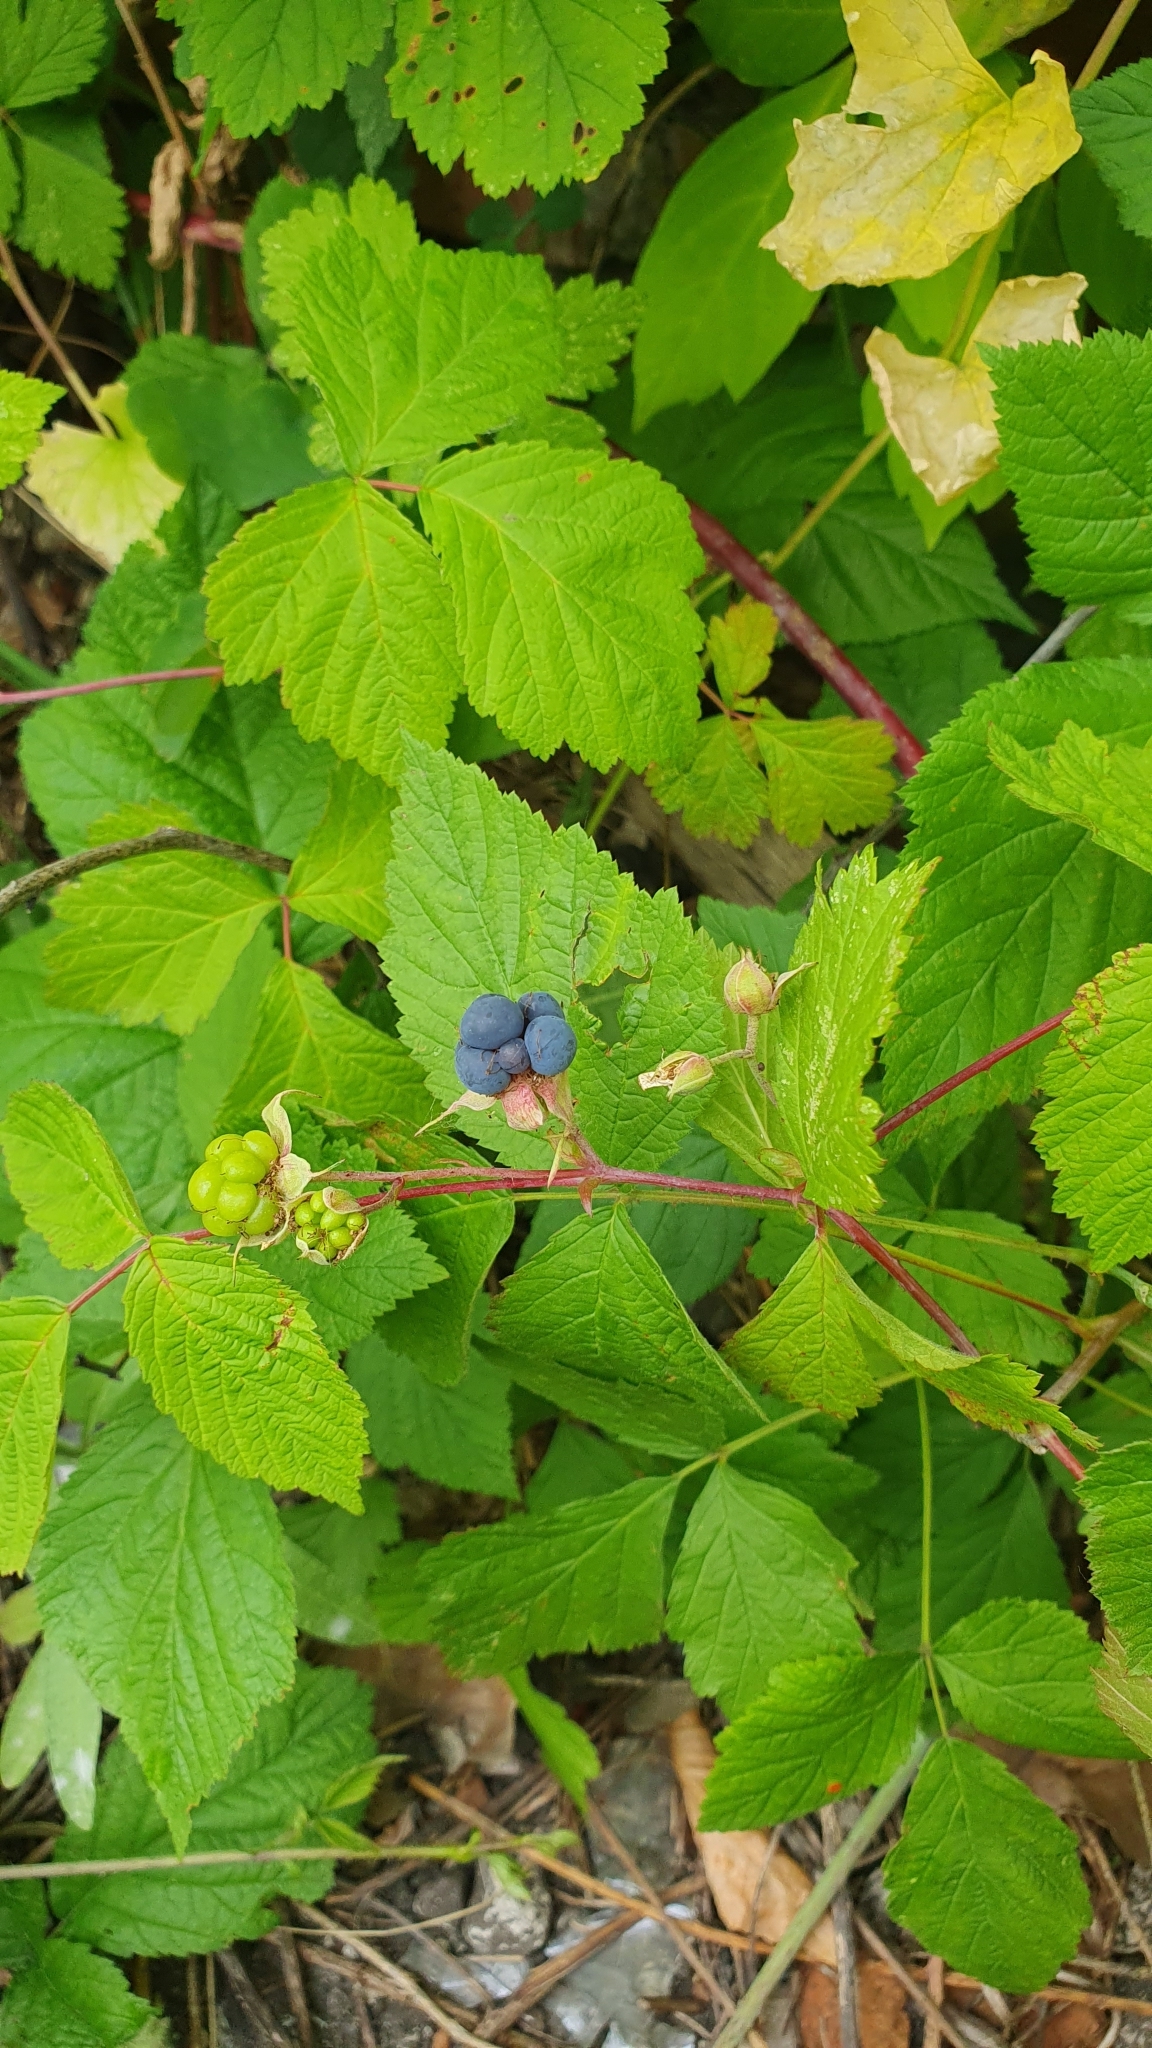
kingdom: Plantae
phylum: Tracheophyta
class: Magnoliopsida
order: Rosales
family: Rosaceae
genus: Rubus
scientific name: Rubus caesius
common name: Dewberry
